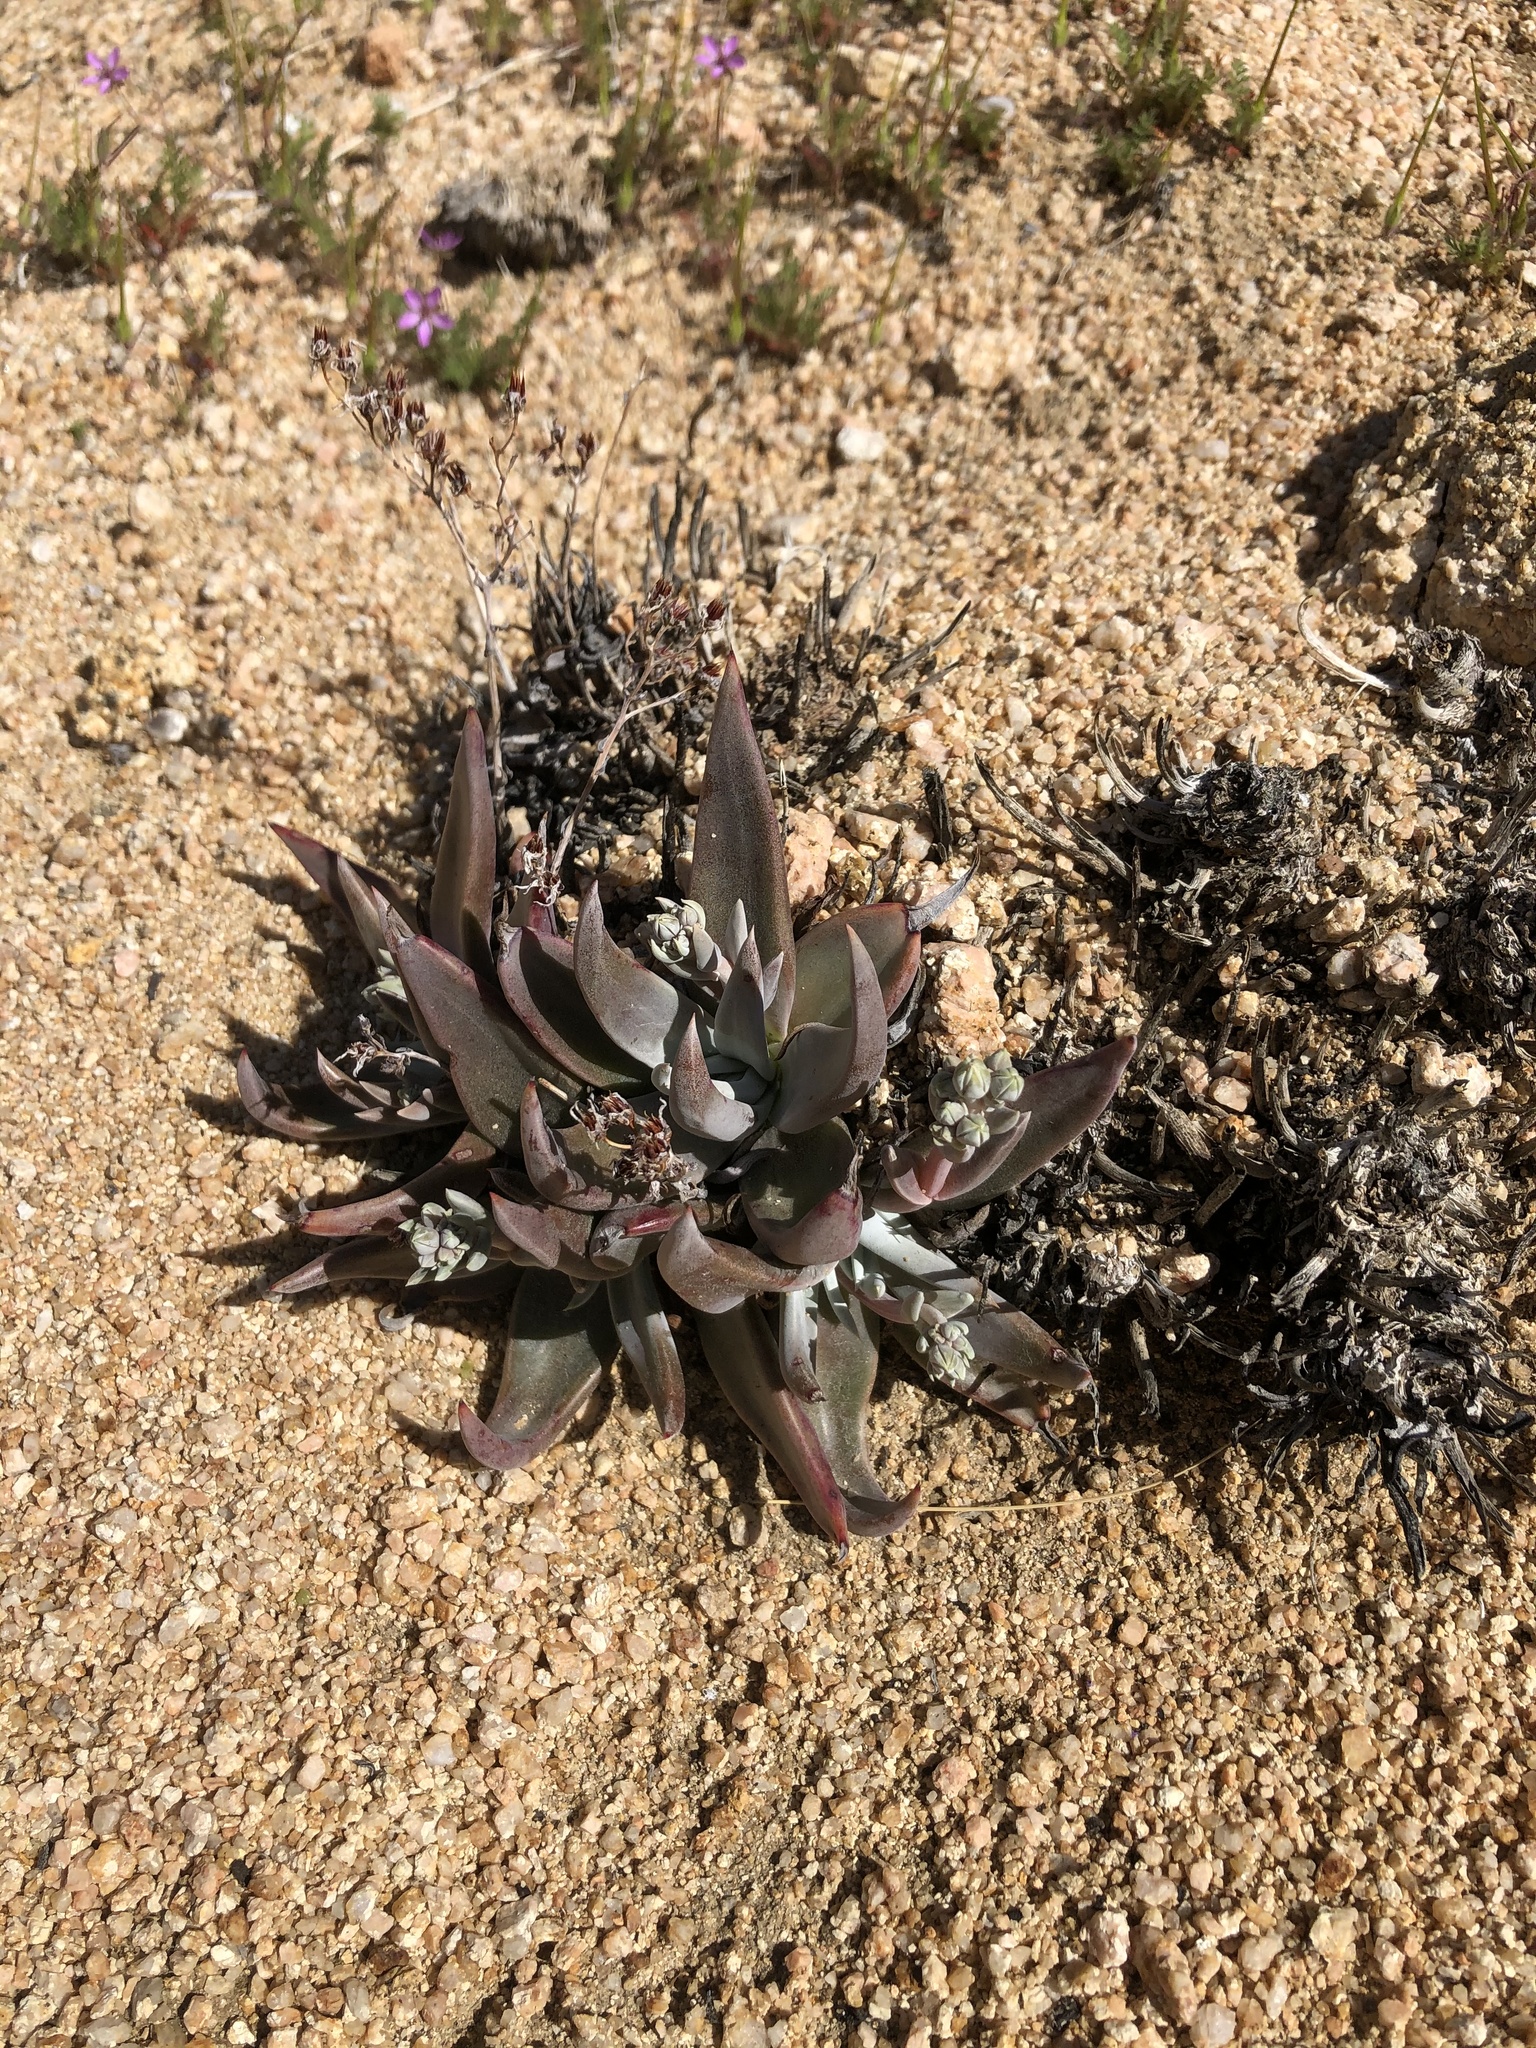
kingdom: Plantae
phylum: Tracheophyta
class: Magnoliopsida
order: Saxifragales
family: Crassulaceae
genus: Dudleya
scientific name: Dudleya abramsii
